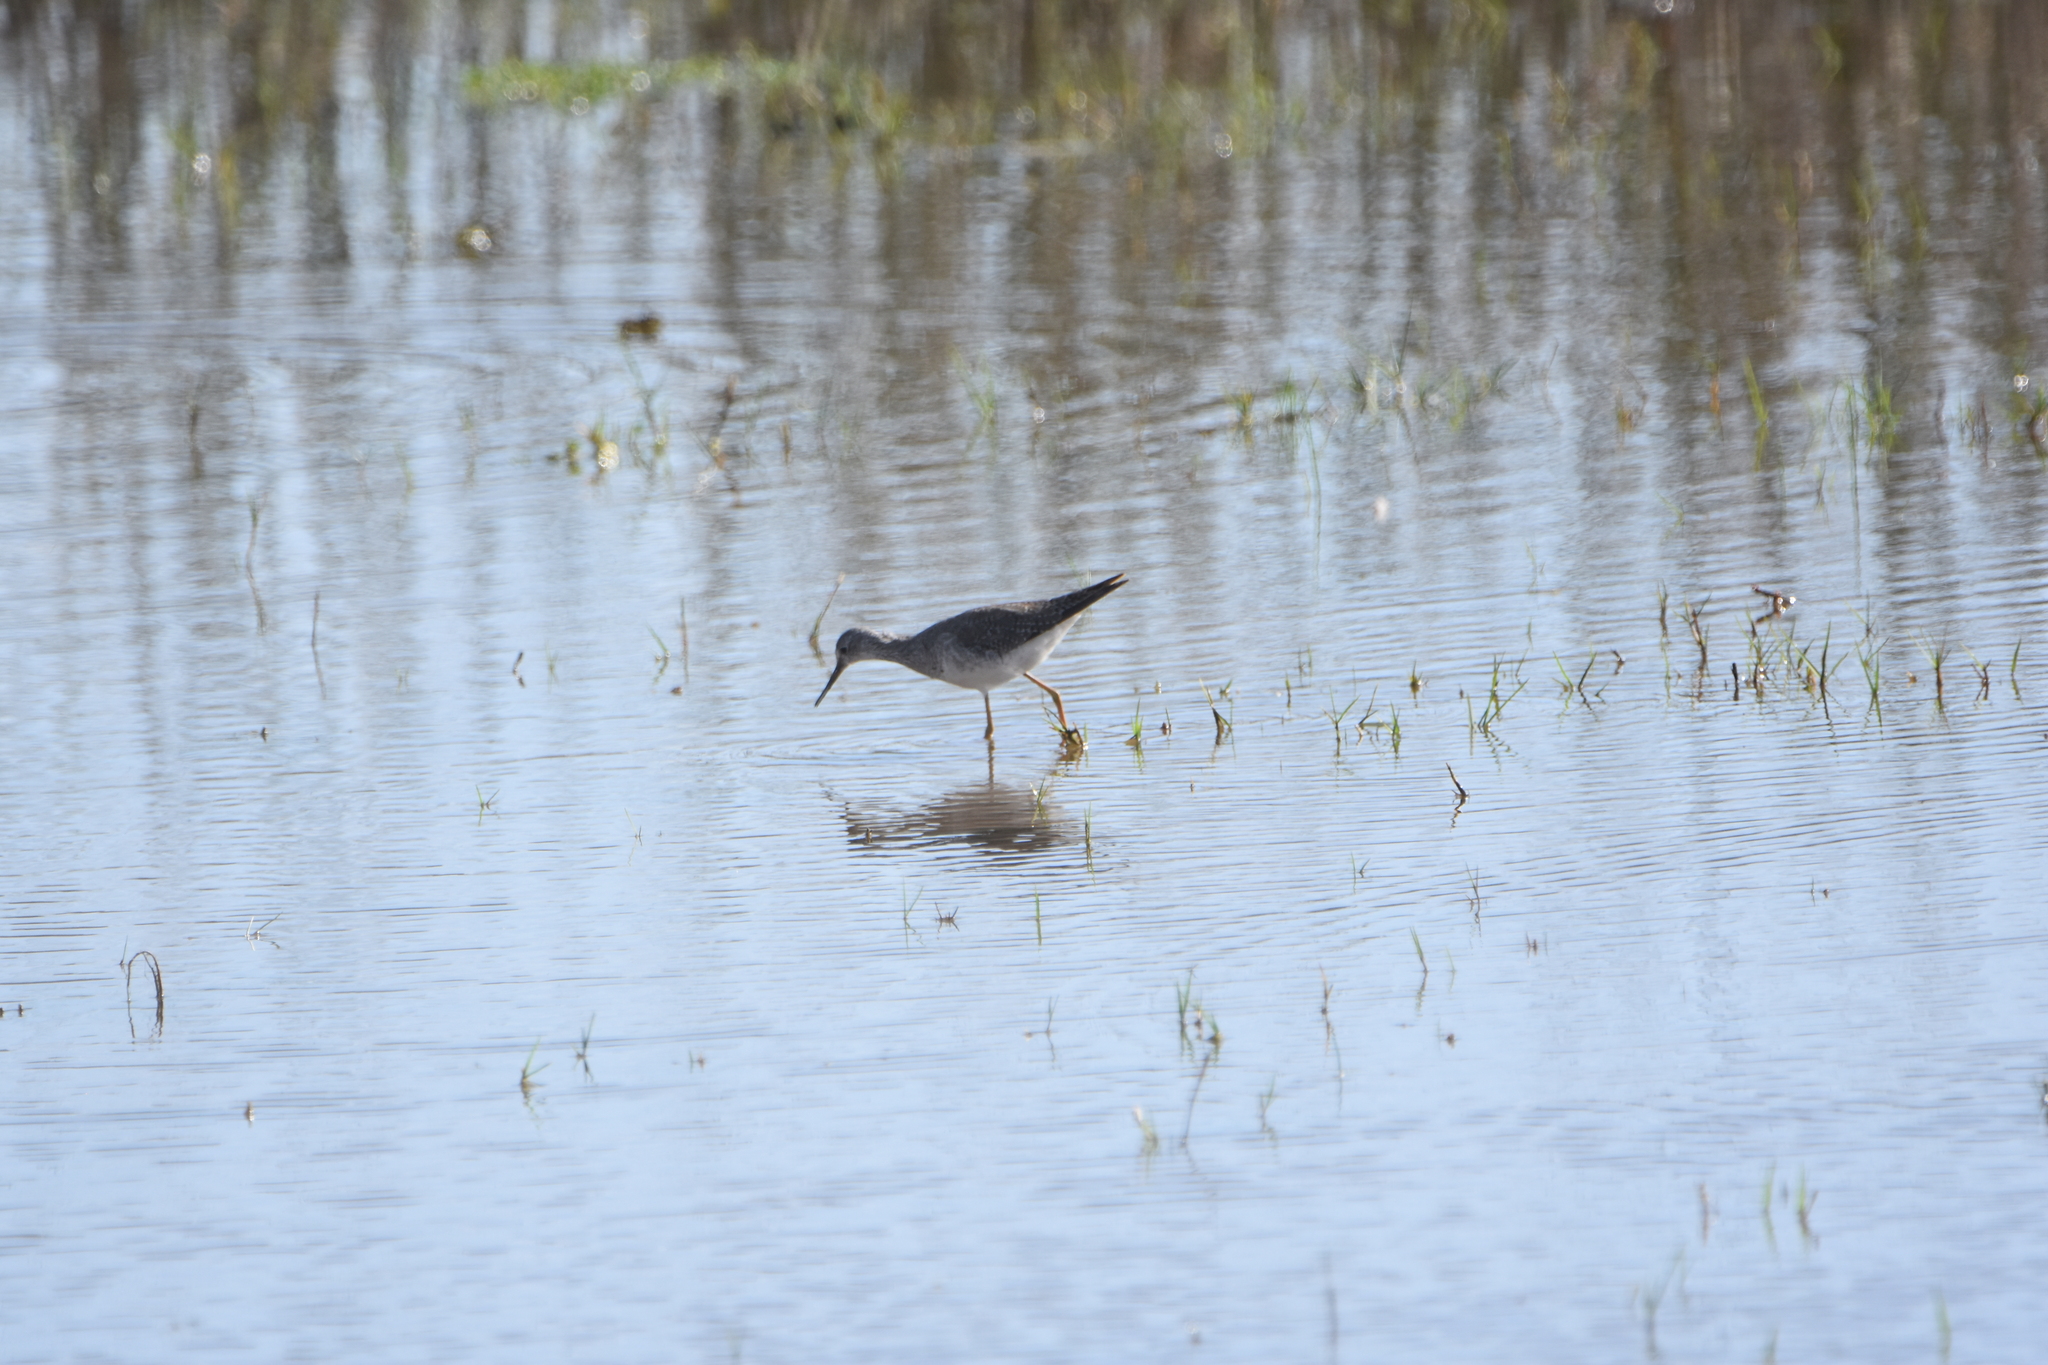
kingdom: Animalia
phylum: Chordata
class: Aves
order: Charadriiformes
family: Scolopacidae
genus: Tringa
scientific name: Tringa flavipes
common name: Lesser yellowlegs
